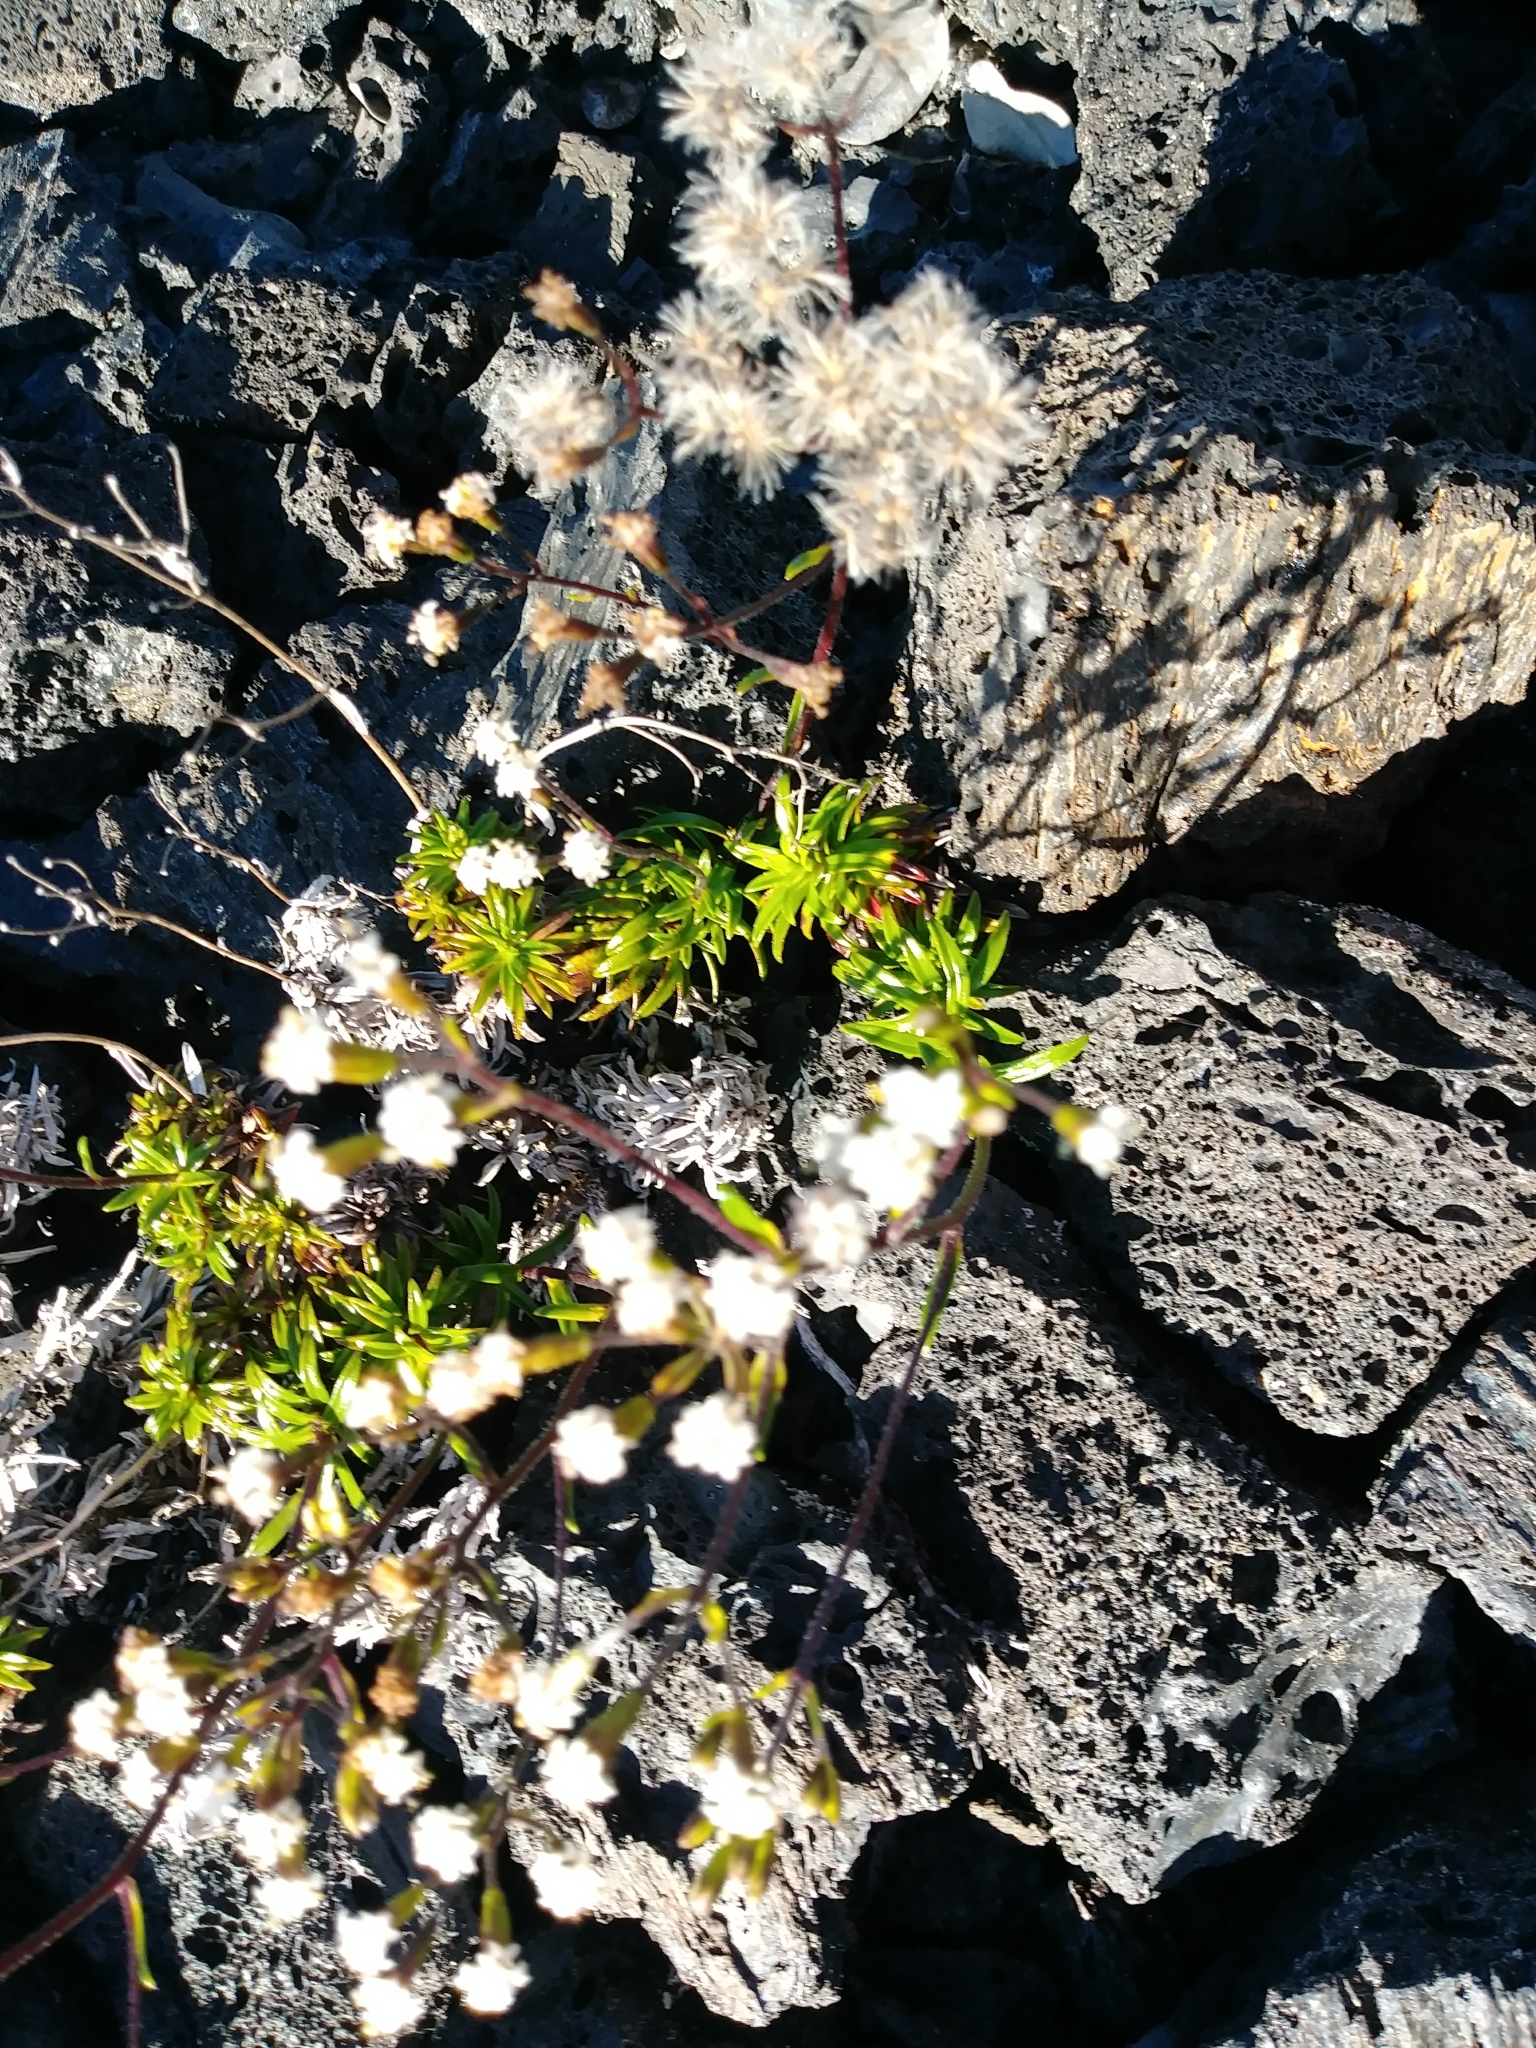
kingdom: Plantae
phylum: Tracheophyta
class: Magnoliopsida
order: Asterales
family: Asteraceae
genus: Dubautia
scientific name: Dubautia scabra
